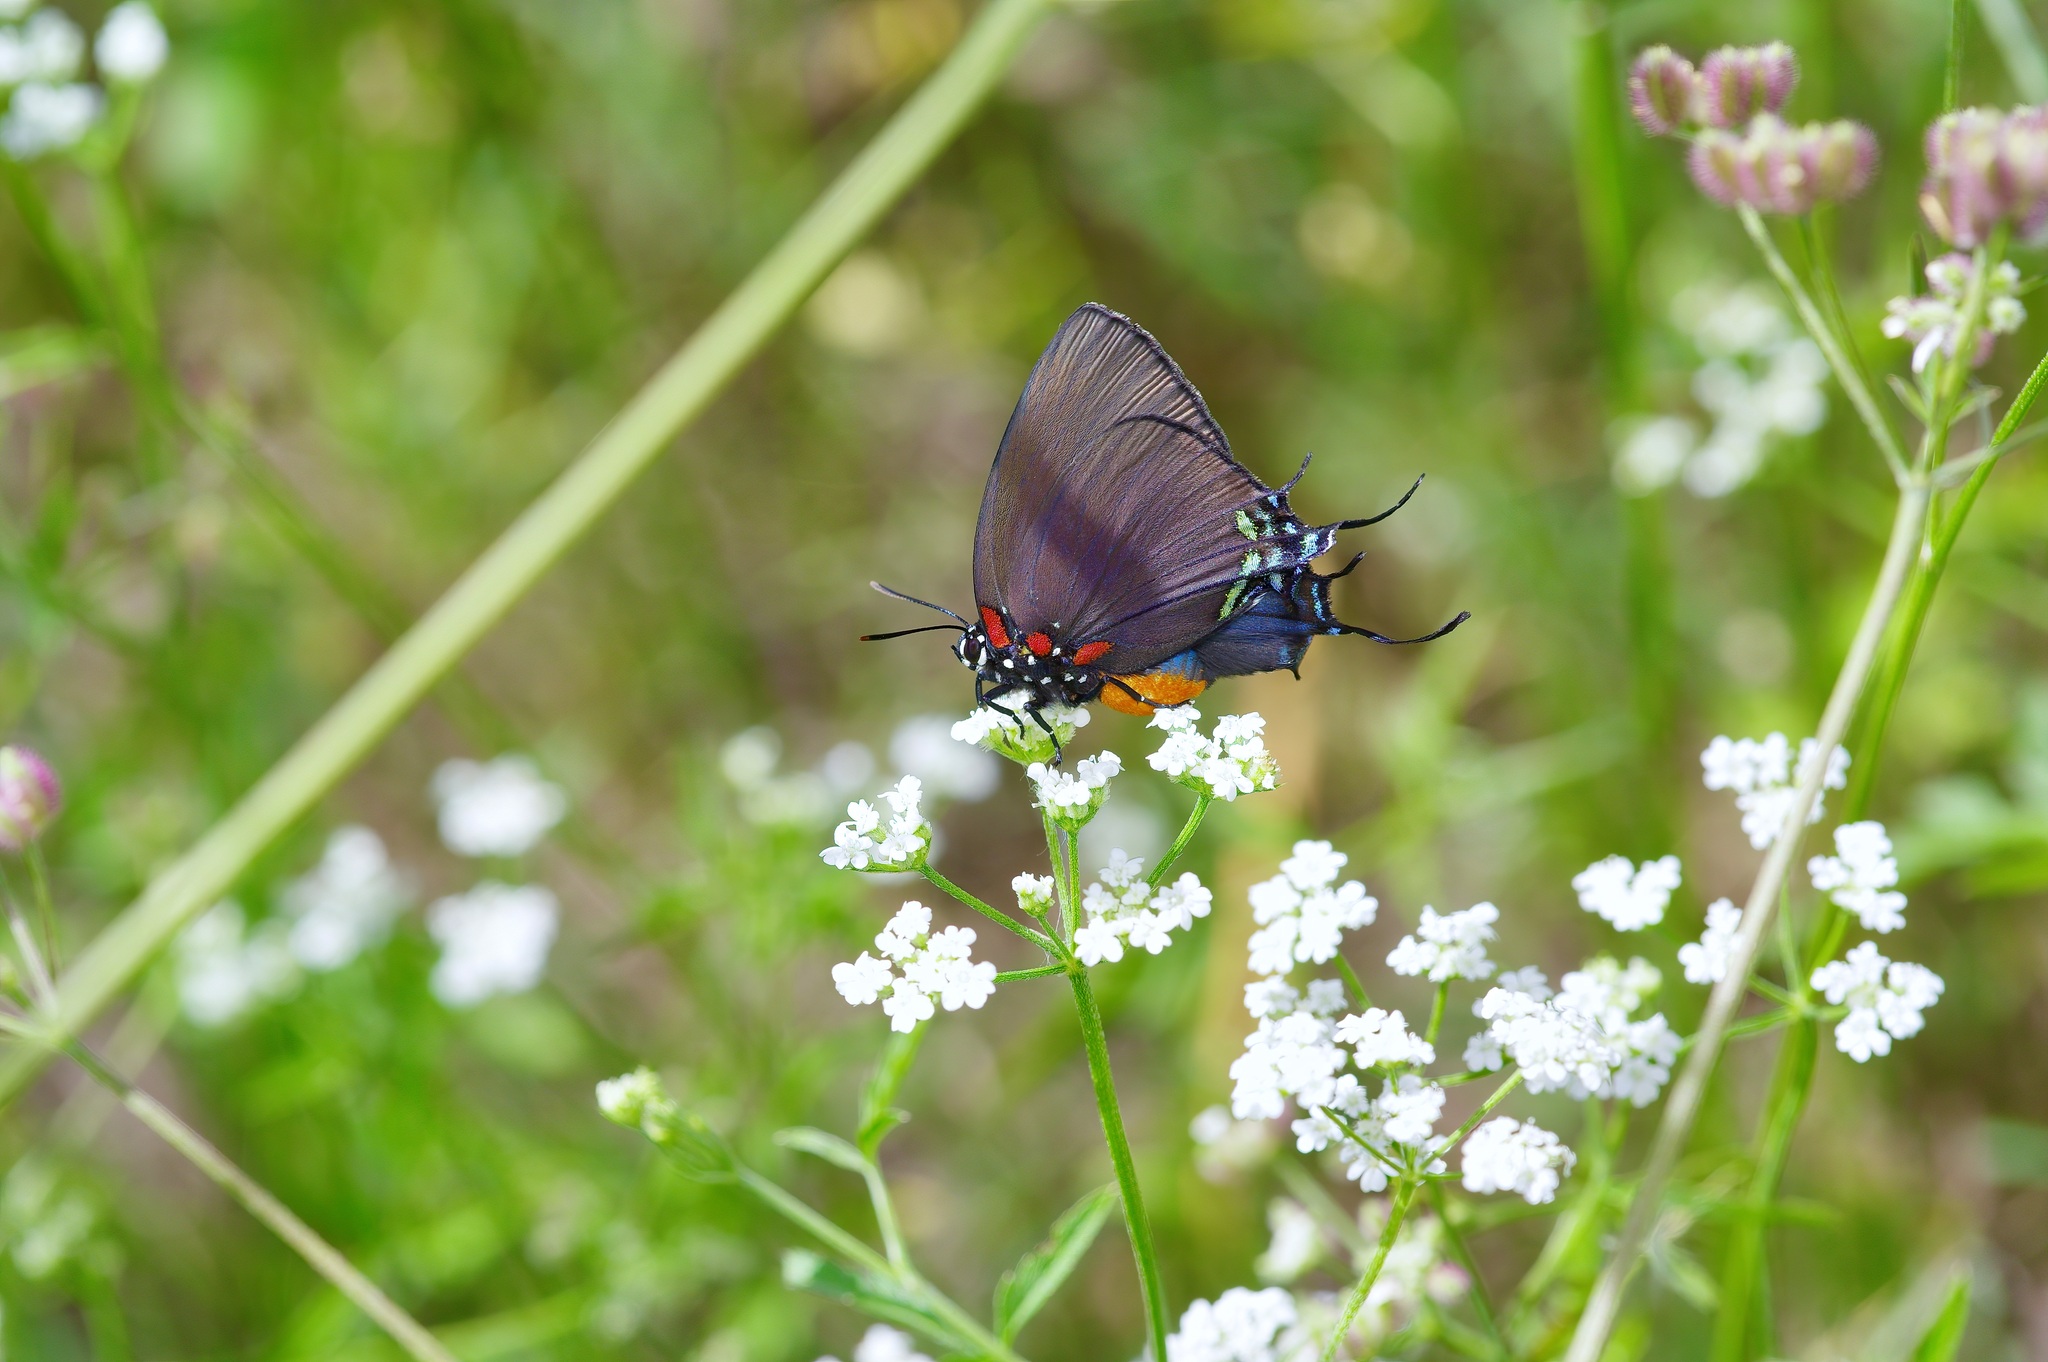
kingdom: Animalia
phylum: Arthropoda
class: Insecta
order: Lepidoptera
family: Lycaenidae
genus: Atlides
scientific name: Atlides halesus
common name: Great purple hairstreak
